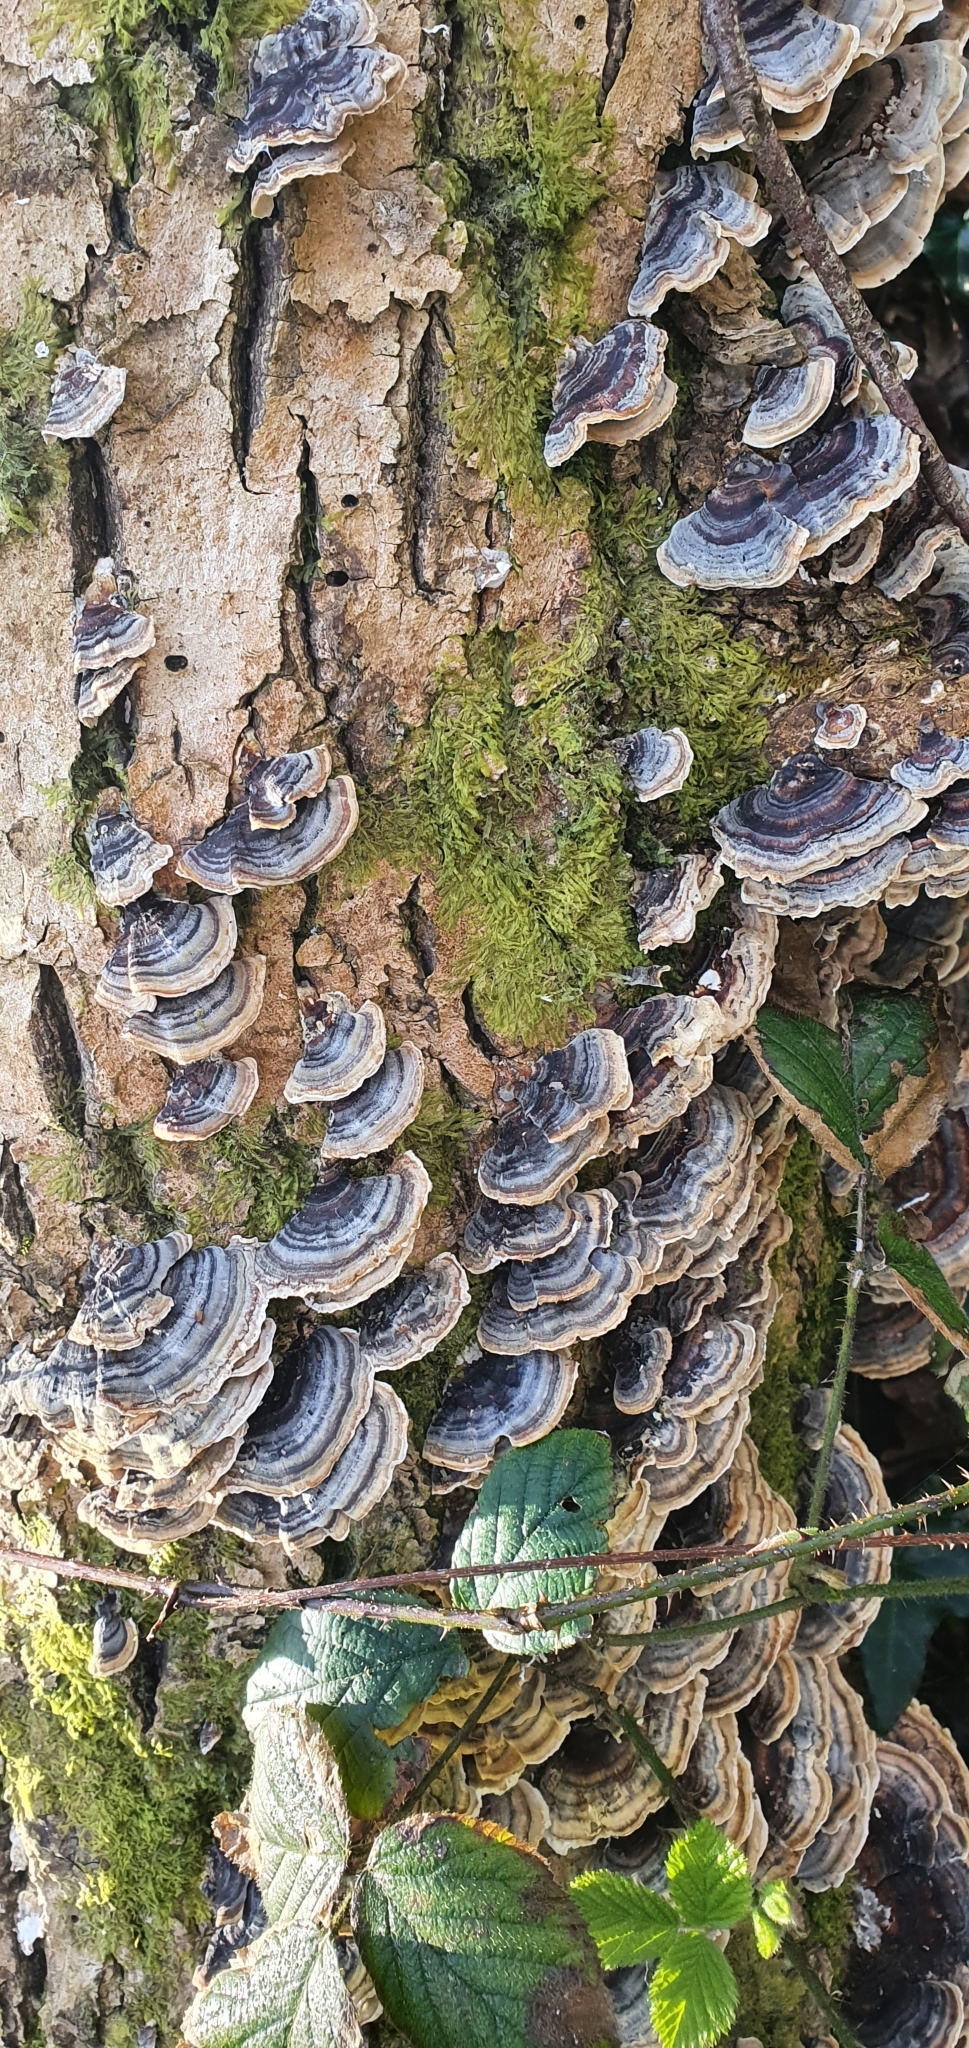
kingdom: Fungi
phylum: Basidiomycota
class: Agaricomycetes
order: Polyporales
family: Polyporaceae
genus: Trametes
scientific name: Trametes versicolor
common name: Turkeytail
